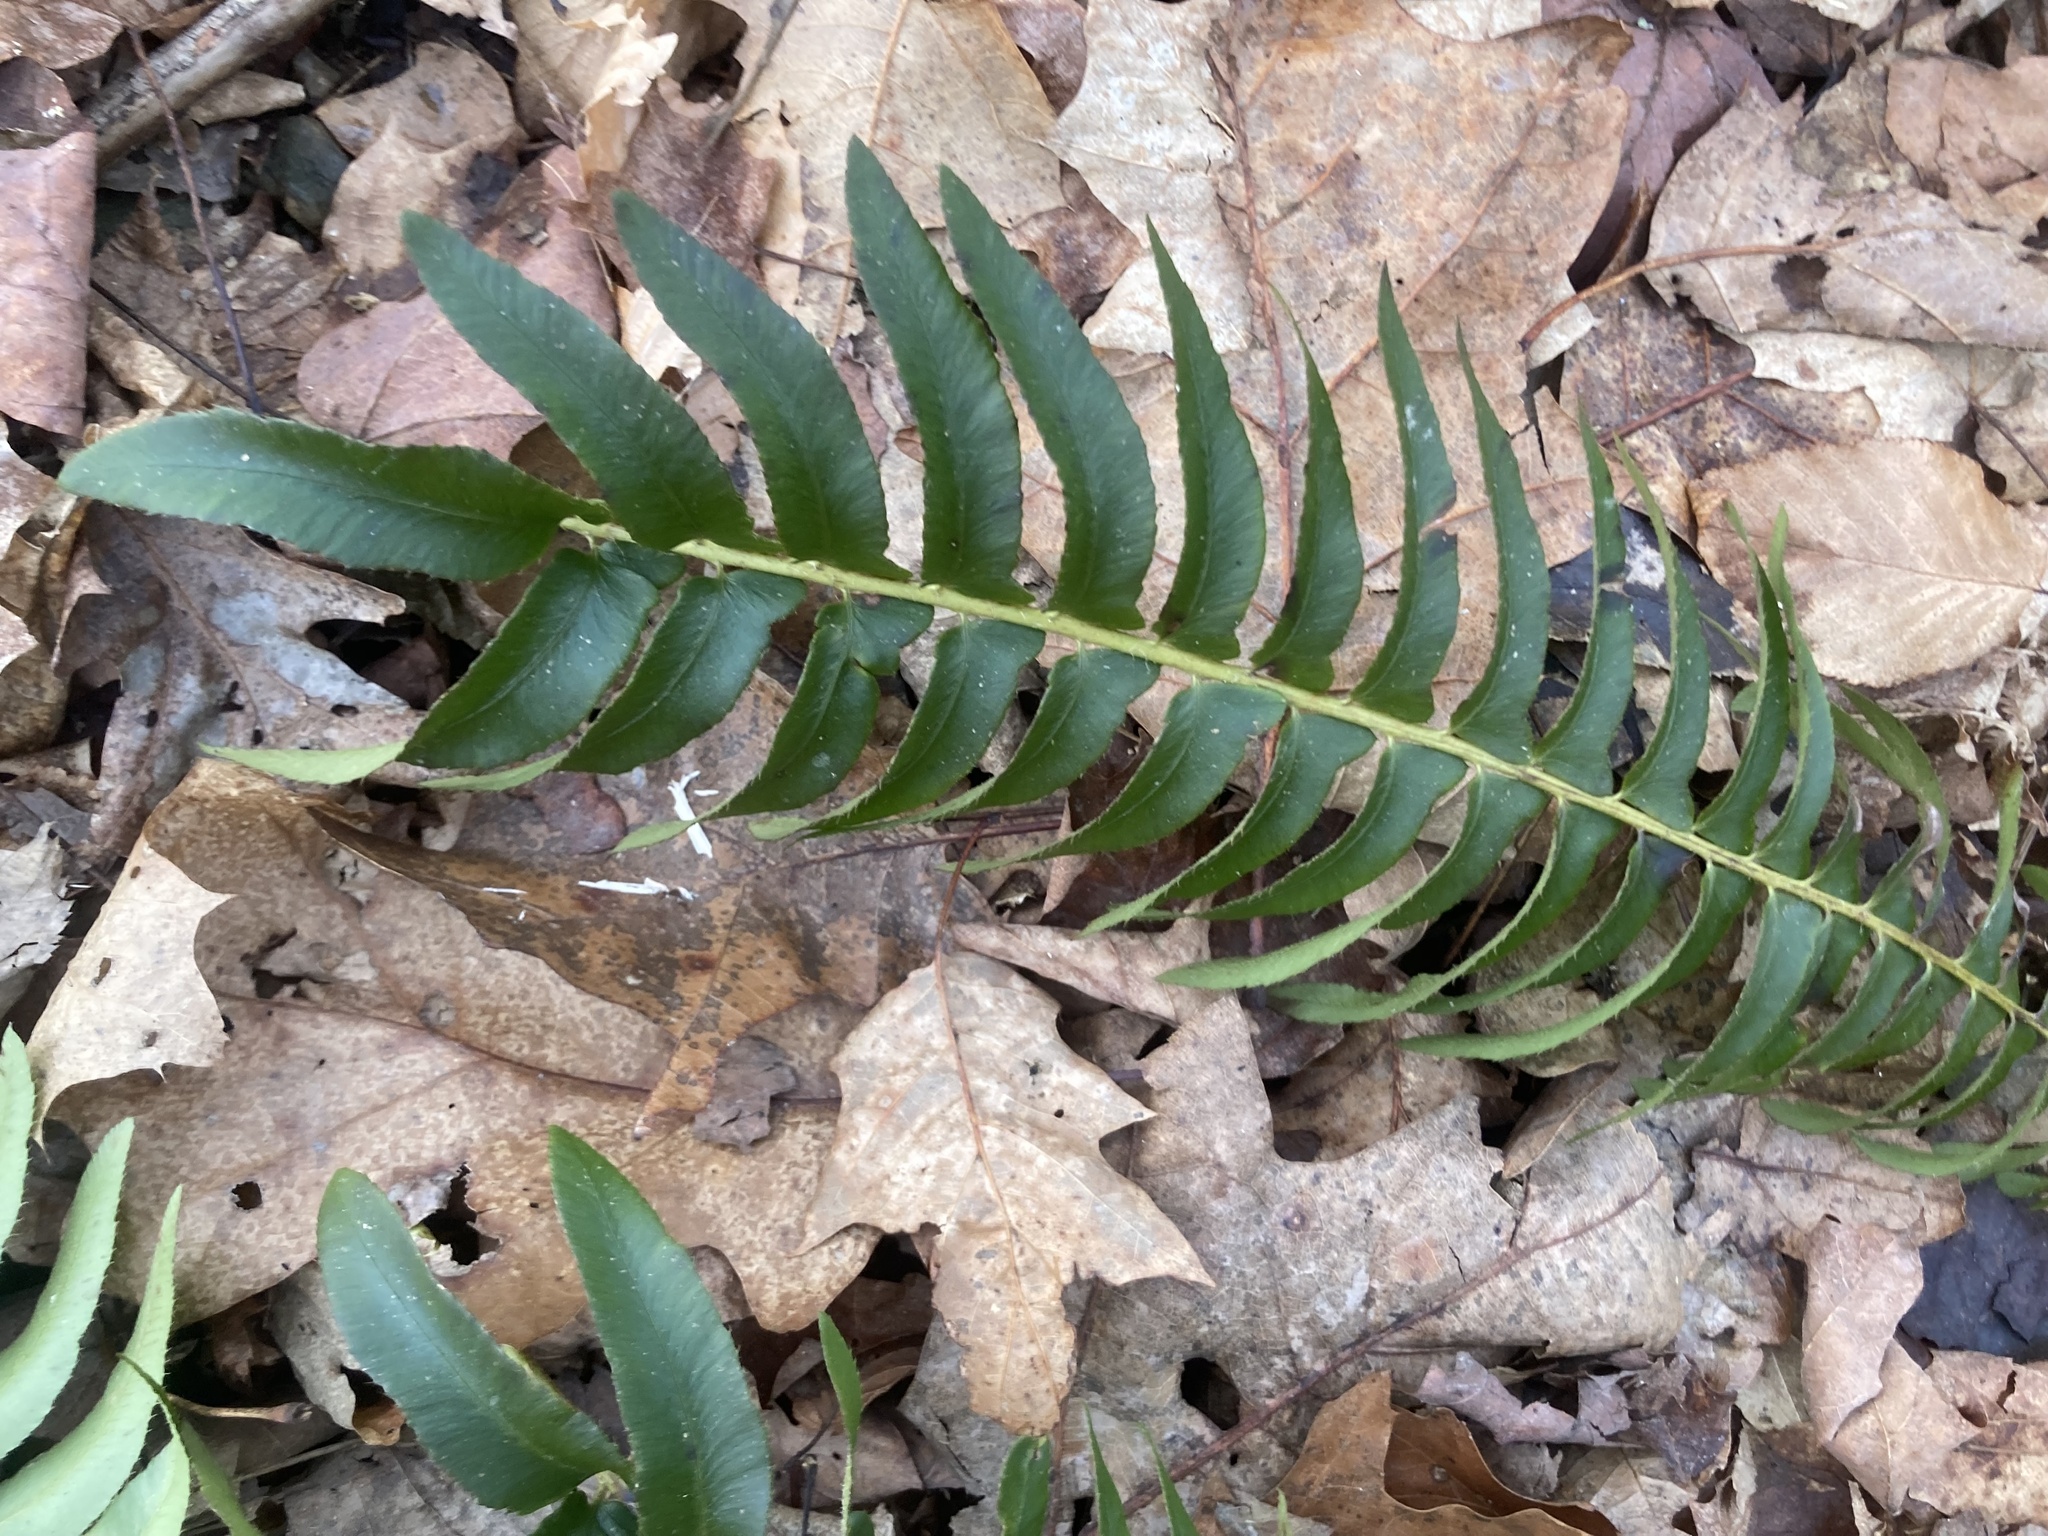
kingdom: Plantae
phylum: Tracheophyta
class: Polypodiopsida
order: Polypodiales
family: Dryopteridaceae
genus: Polystichum
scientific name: Polystichum acrostichoides
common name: Christmas fern
